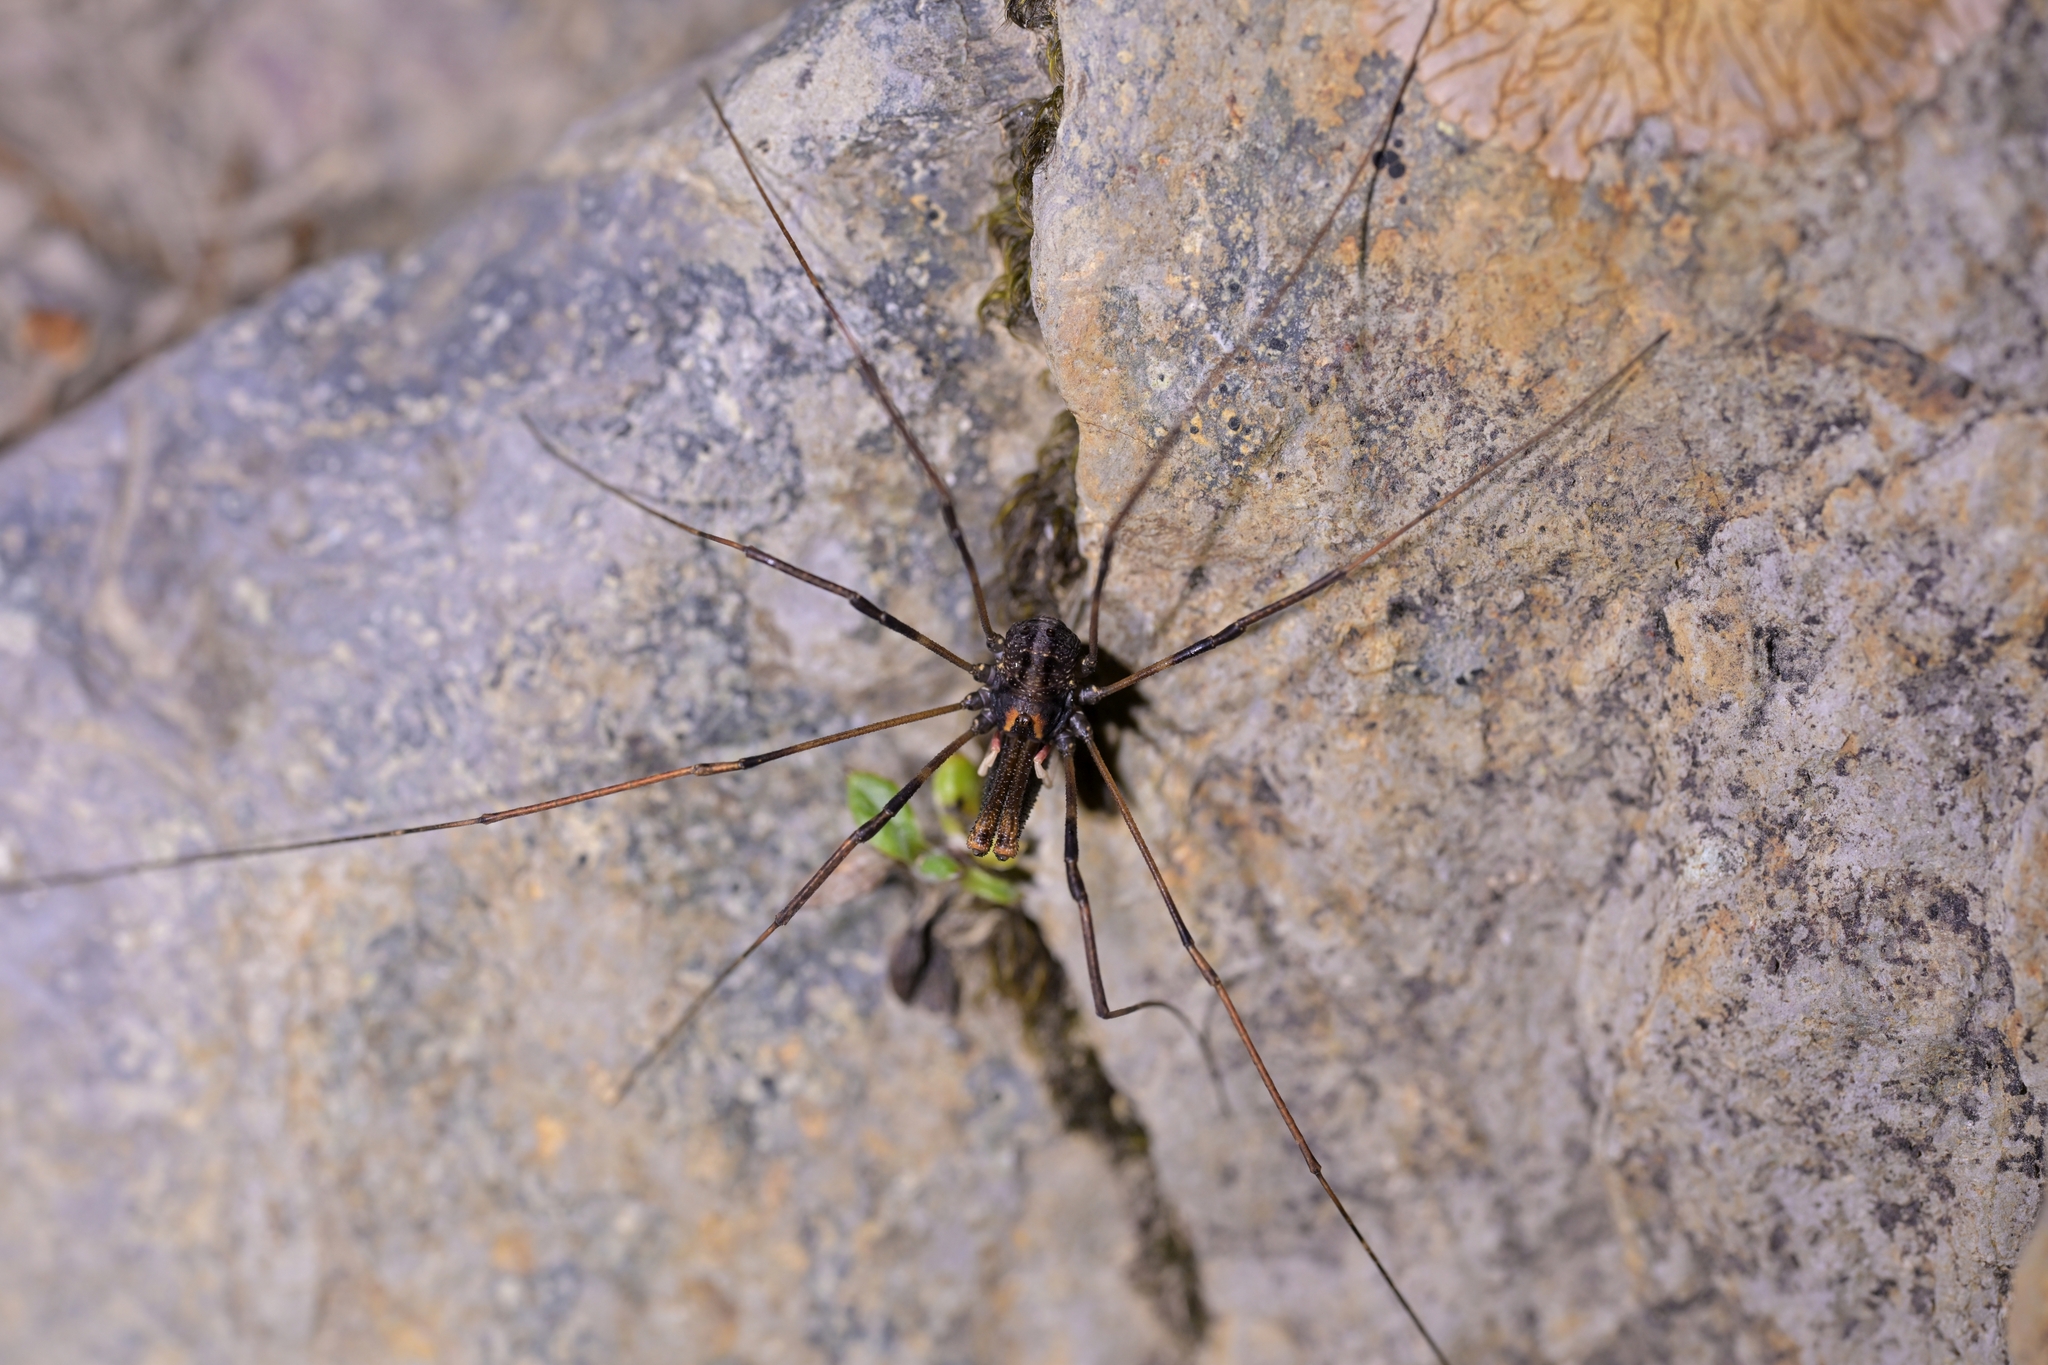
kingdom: Animalia
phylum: Arthropoda
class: Arachnida
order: Opiliones
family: Neopilionidae
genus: Forsteropsalis
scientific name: Forsteropsalis inconstans
